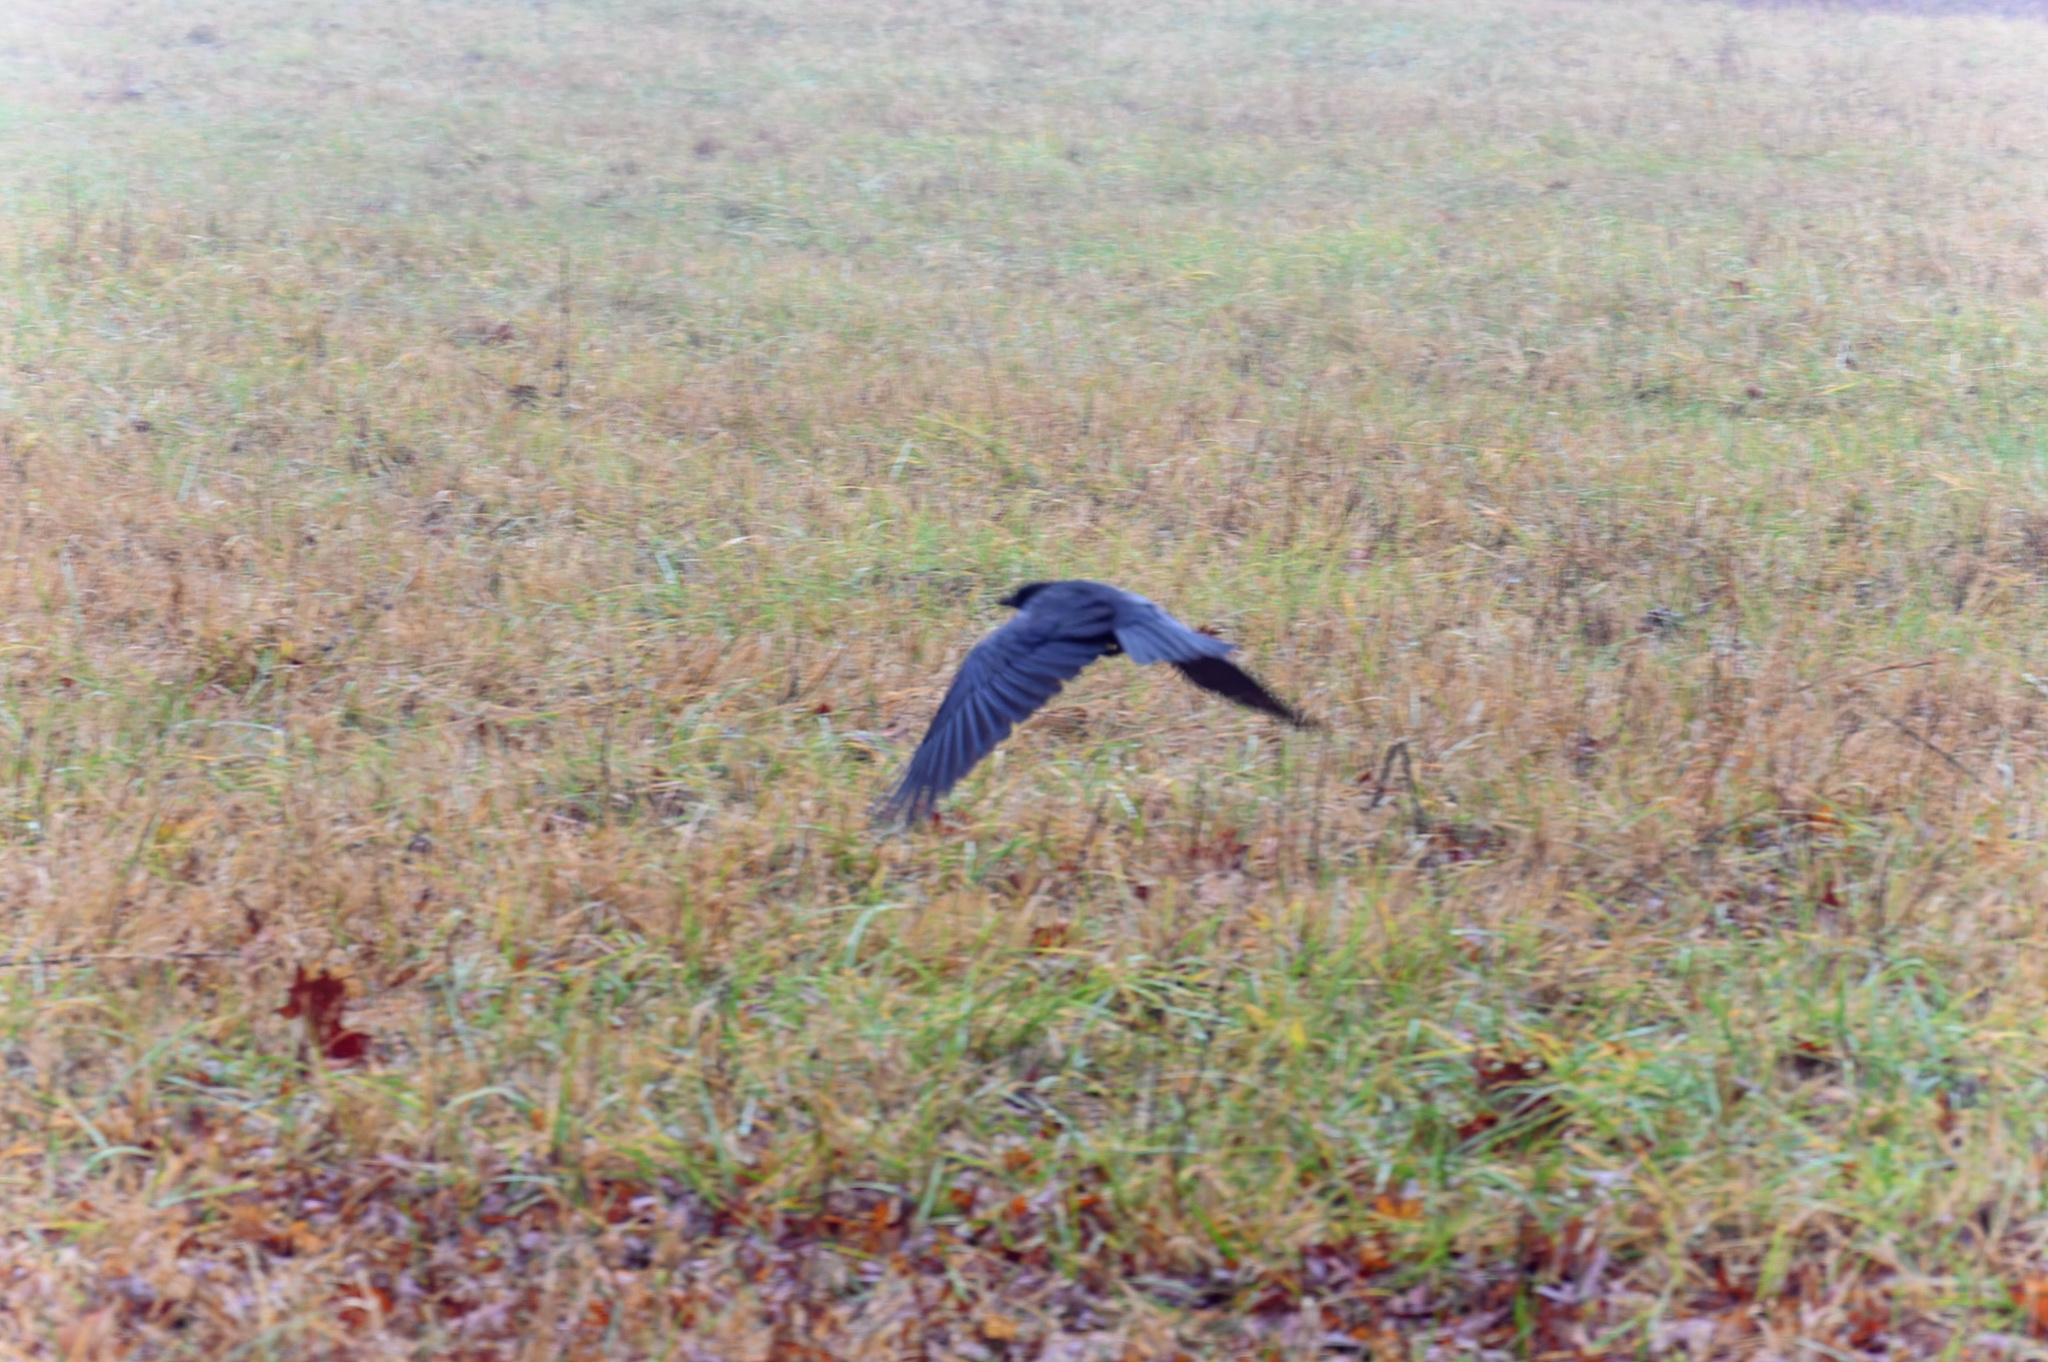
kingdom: Animalia
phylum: Chordata
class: Aves
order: Passeriformes
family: Corvidae
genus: Corvus
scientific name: Corvus brachyrhynchos
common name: American crow
